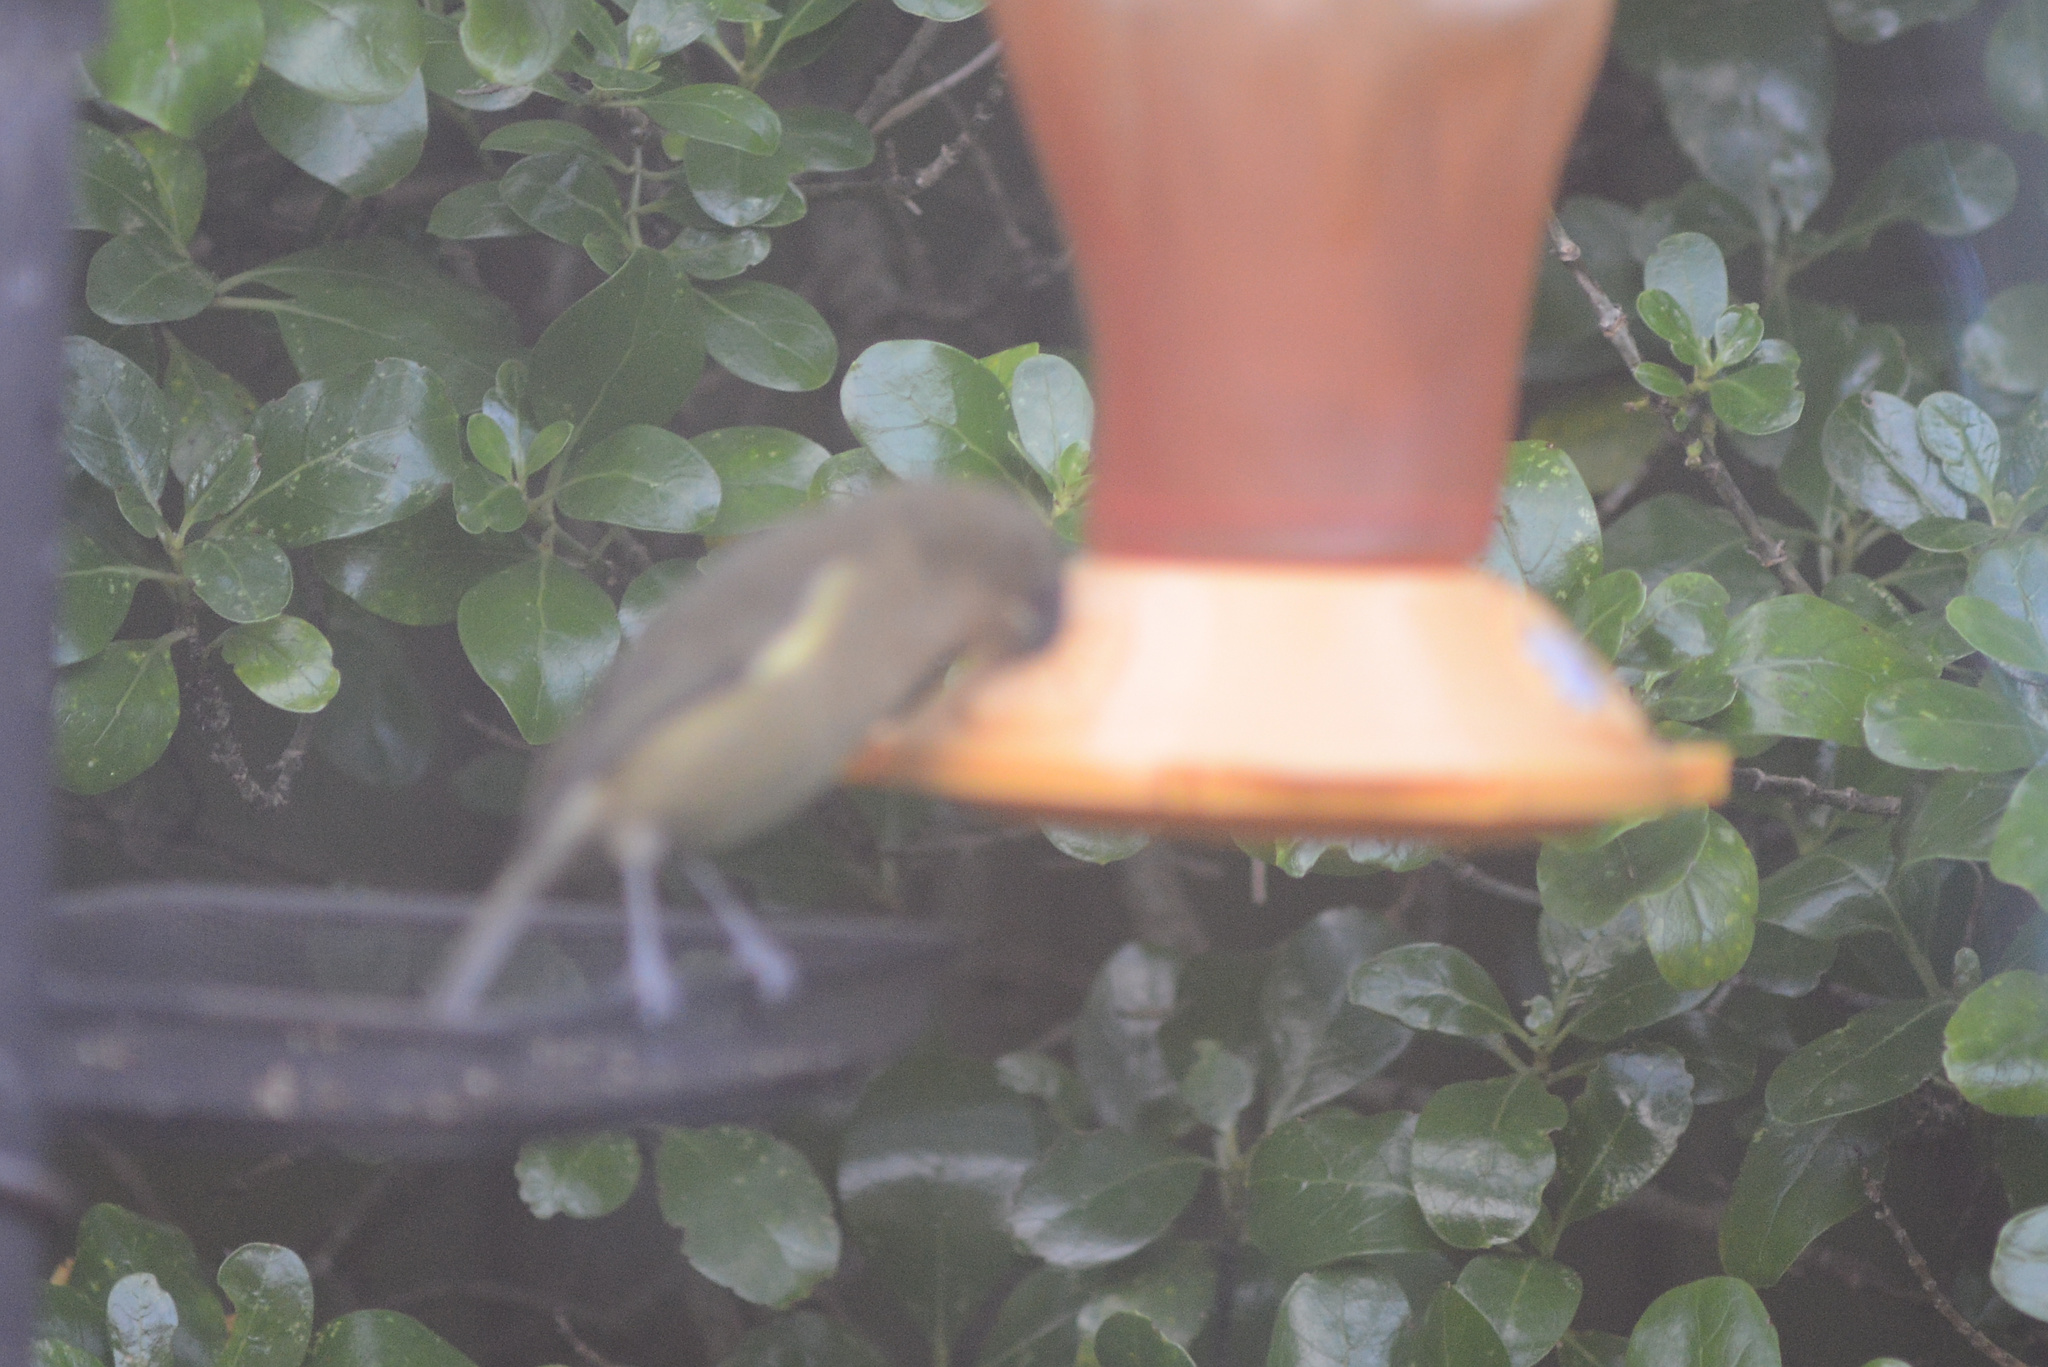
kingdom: Animalia
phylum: Chordata
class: Aves
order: Passeriformes
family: Meliphagidae
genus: Anthornis
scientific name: Anthornis melanura
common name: New zealand bellbird
